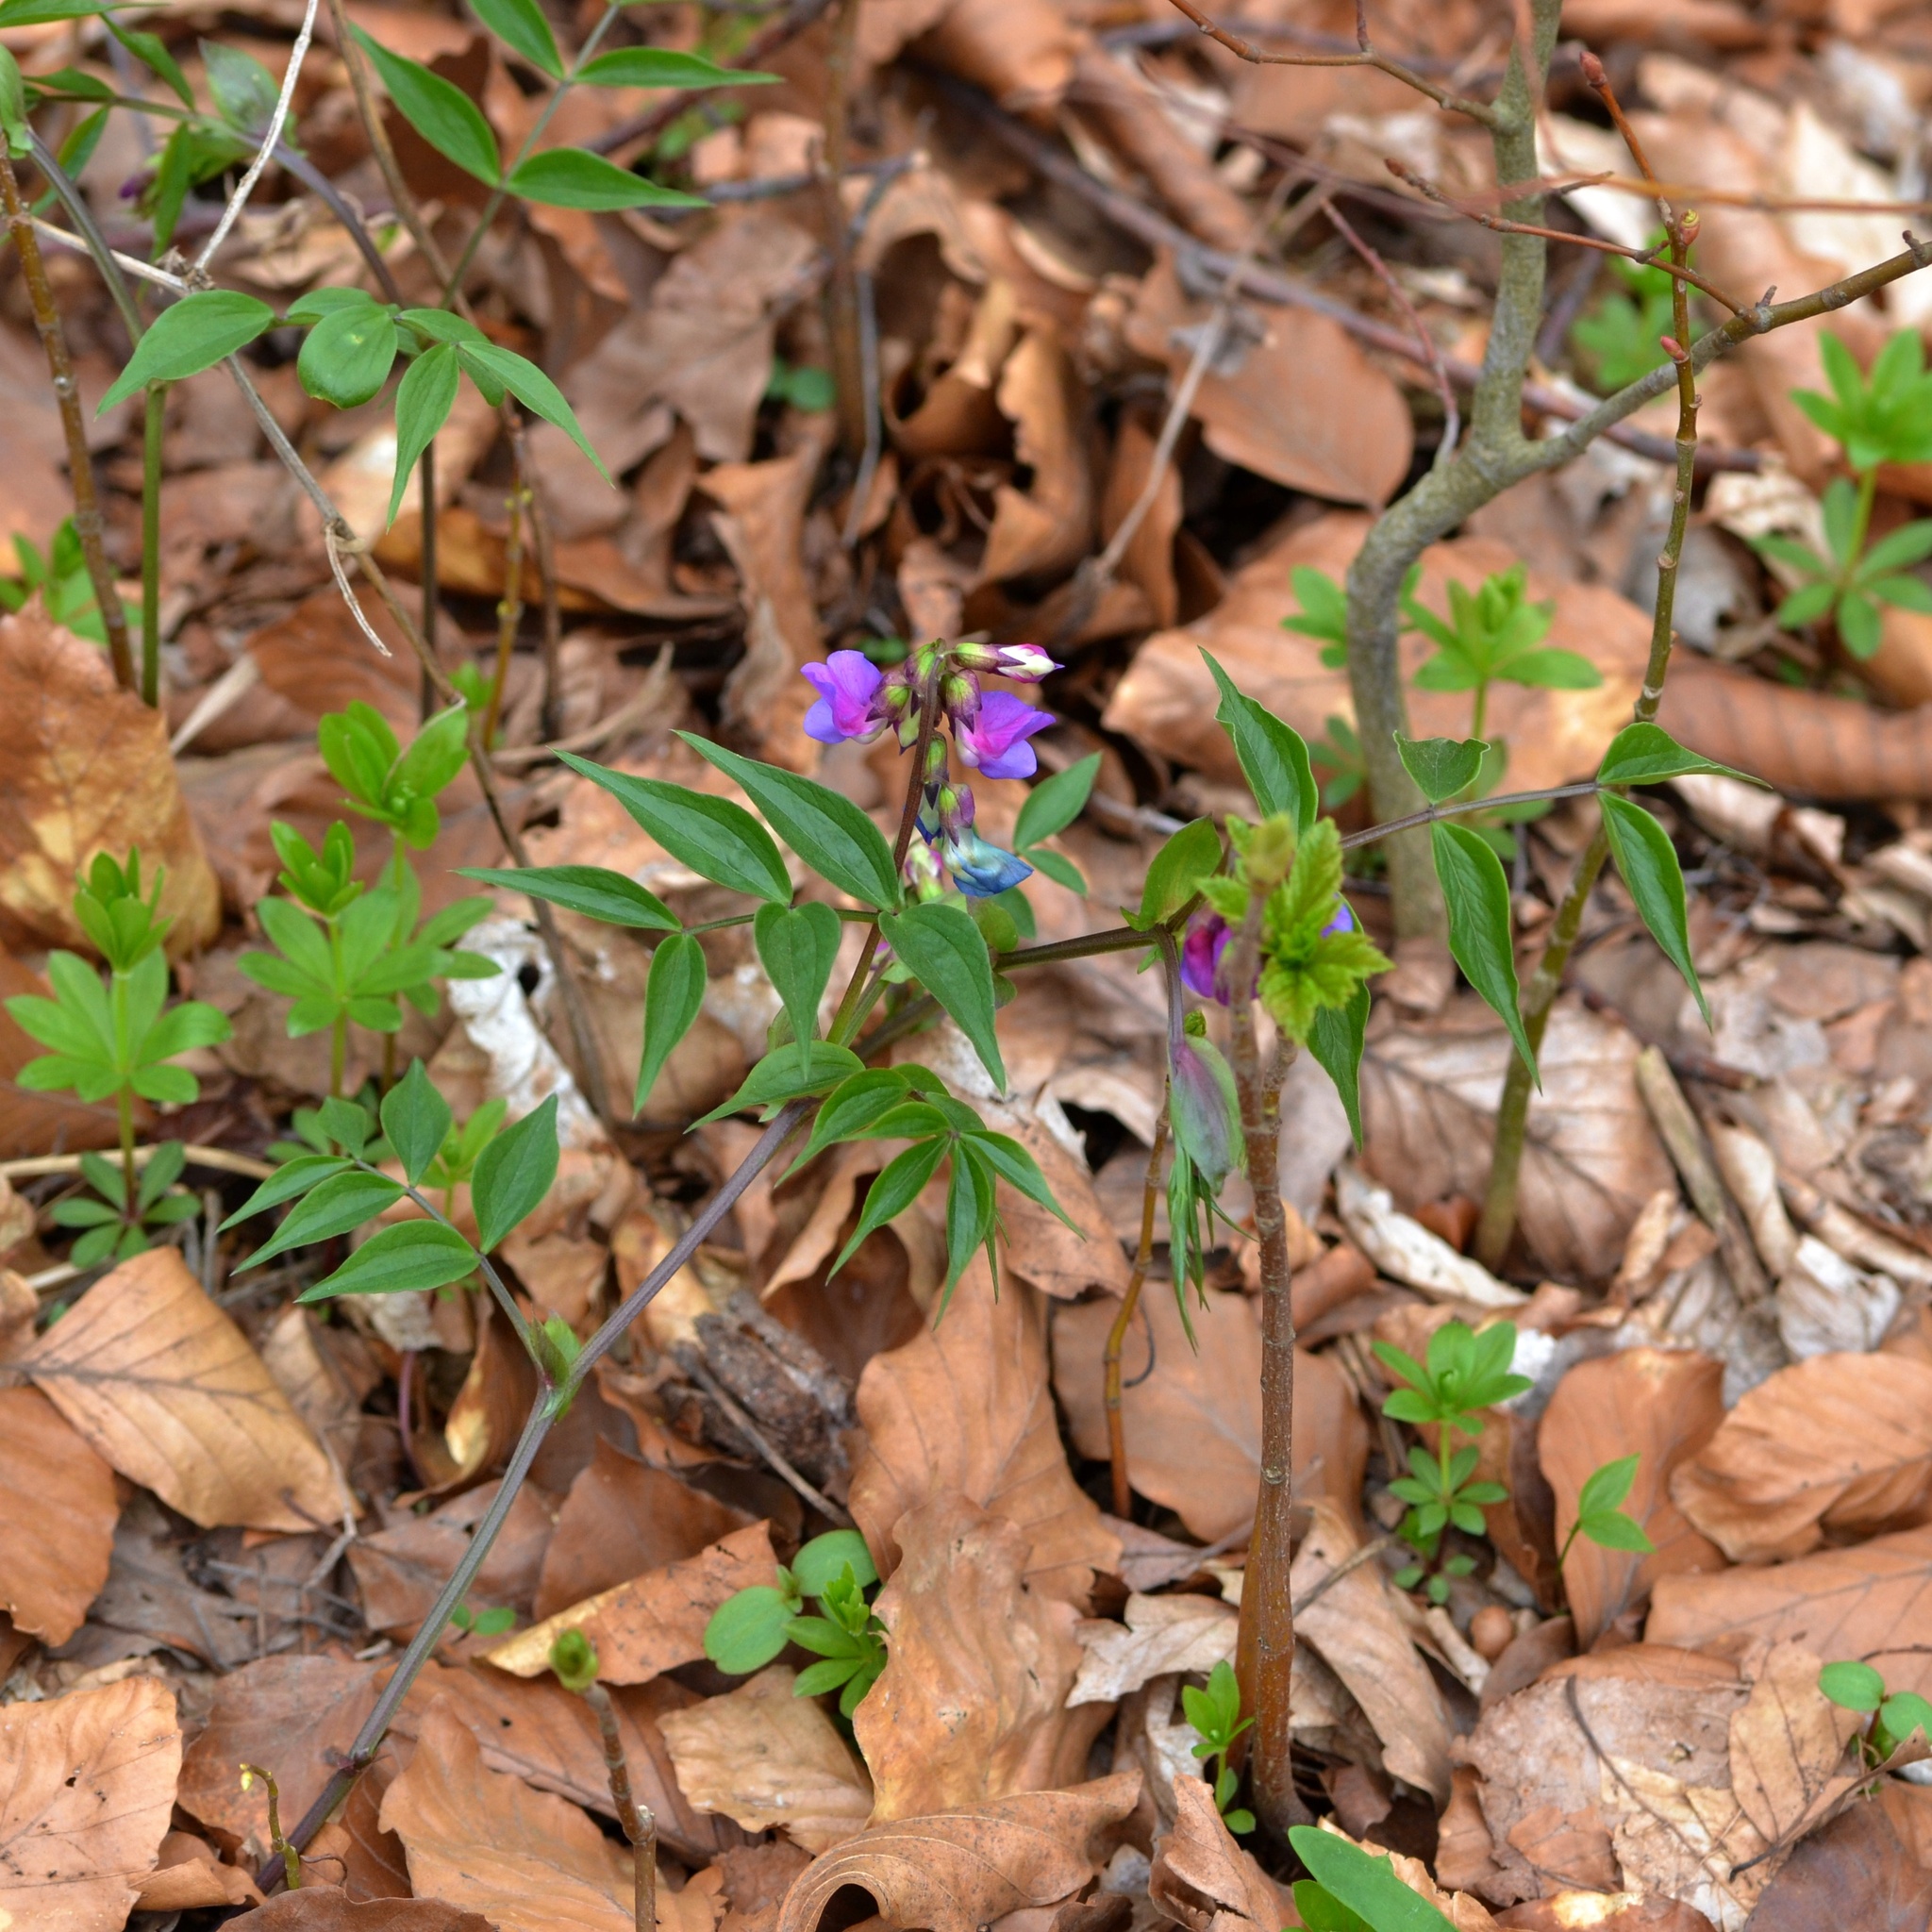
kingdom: Plantae
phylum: Tracheophyta
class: Magnoliopsida
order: Fabales
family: Fabaceae
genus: Lathyrus
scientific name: Lathyrus vernus
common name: Spring pea
